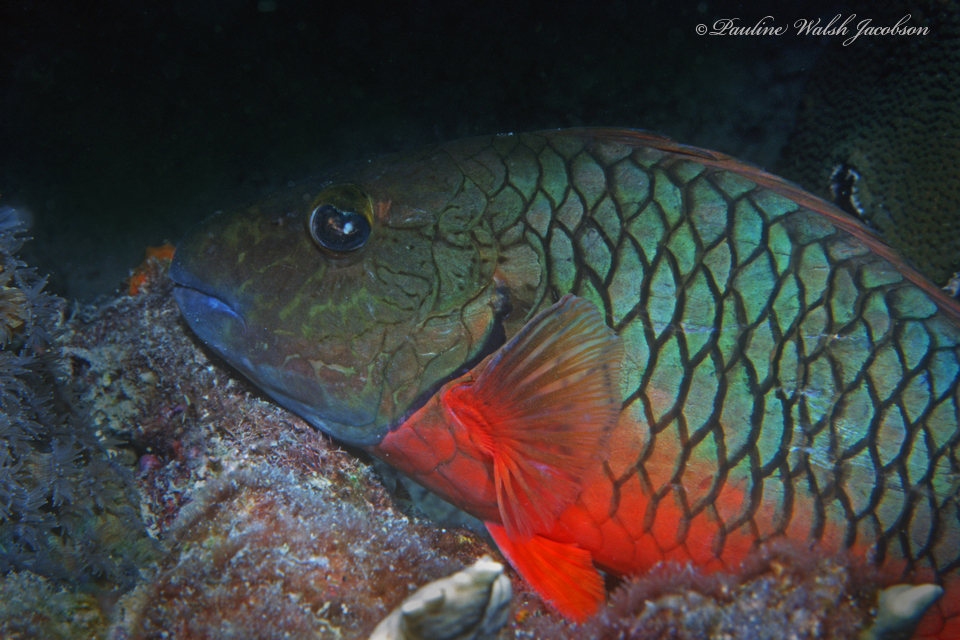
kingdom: Animalia
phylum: Chordata
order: Perciformes
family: Scaridae
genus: Sparisoma
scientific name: Sparisoma chrysopterum
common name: Redtail parrotfish
